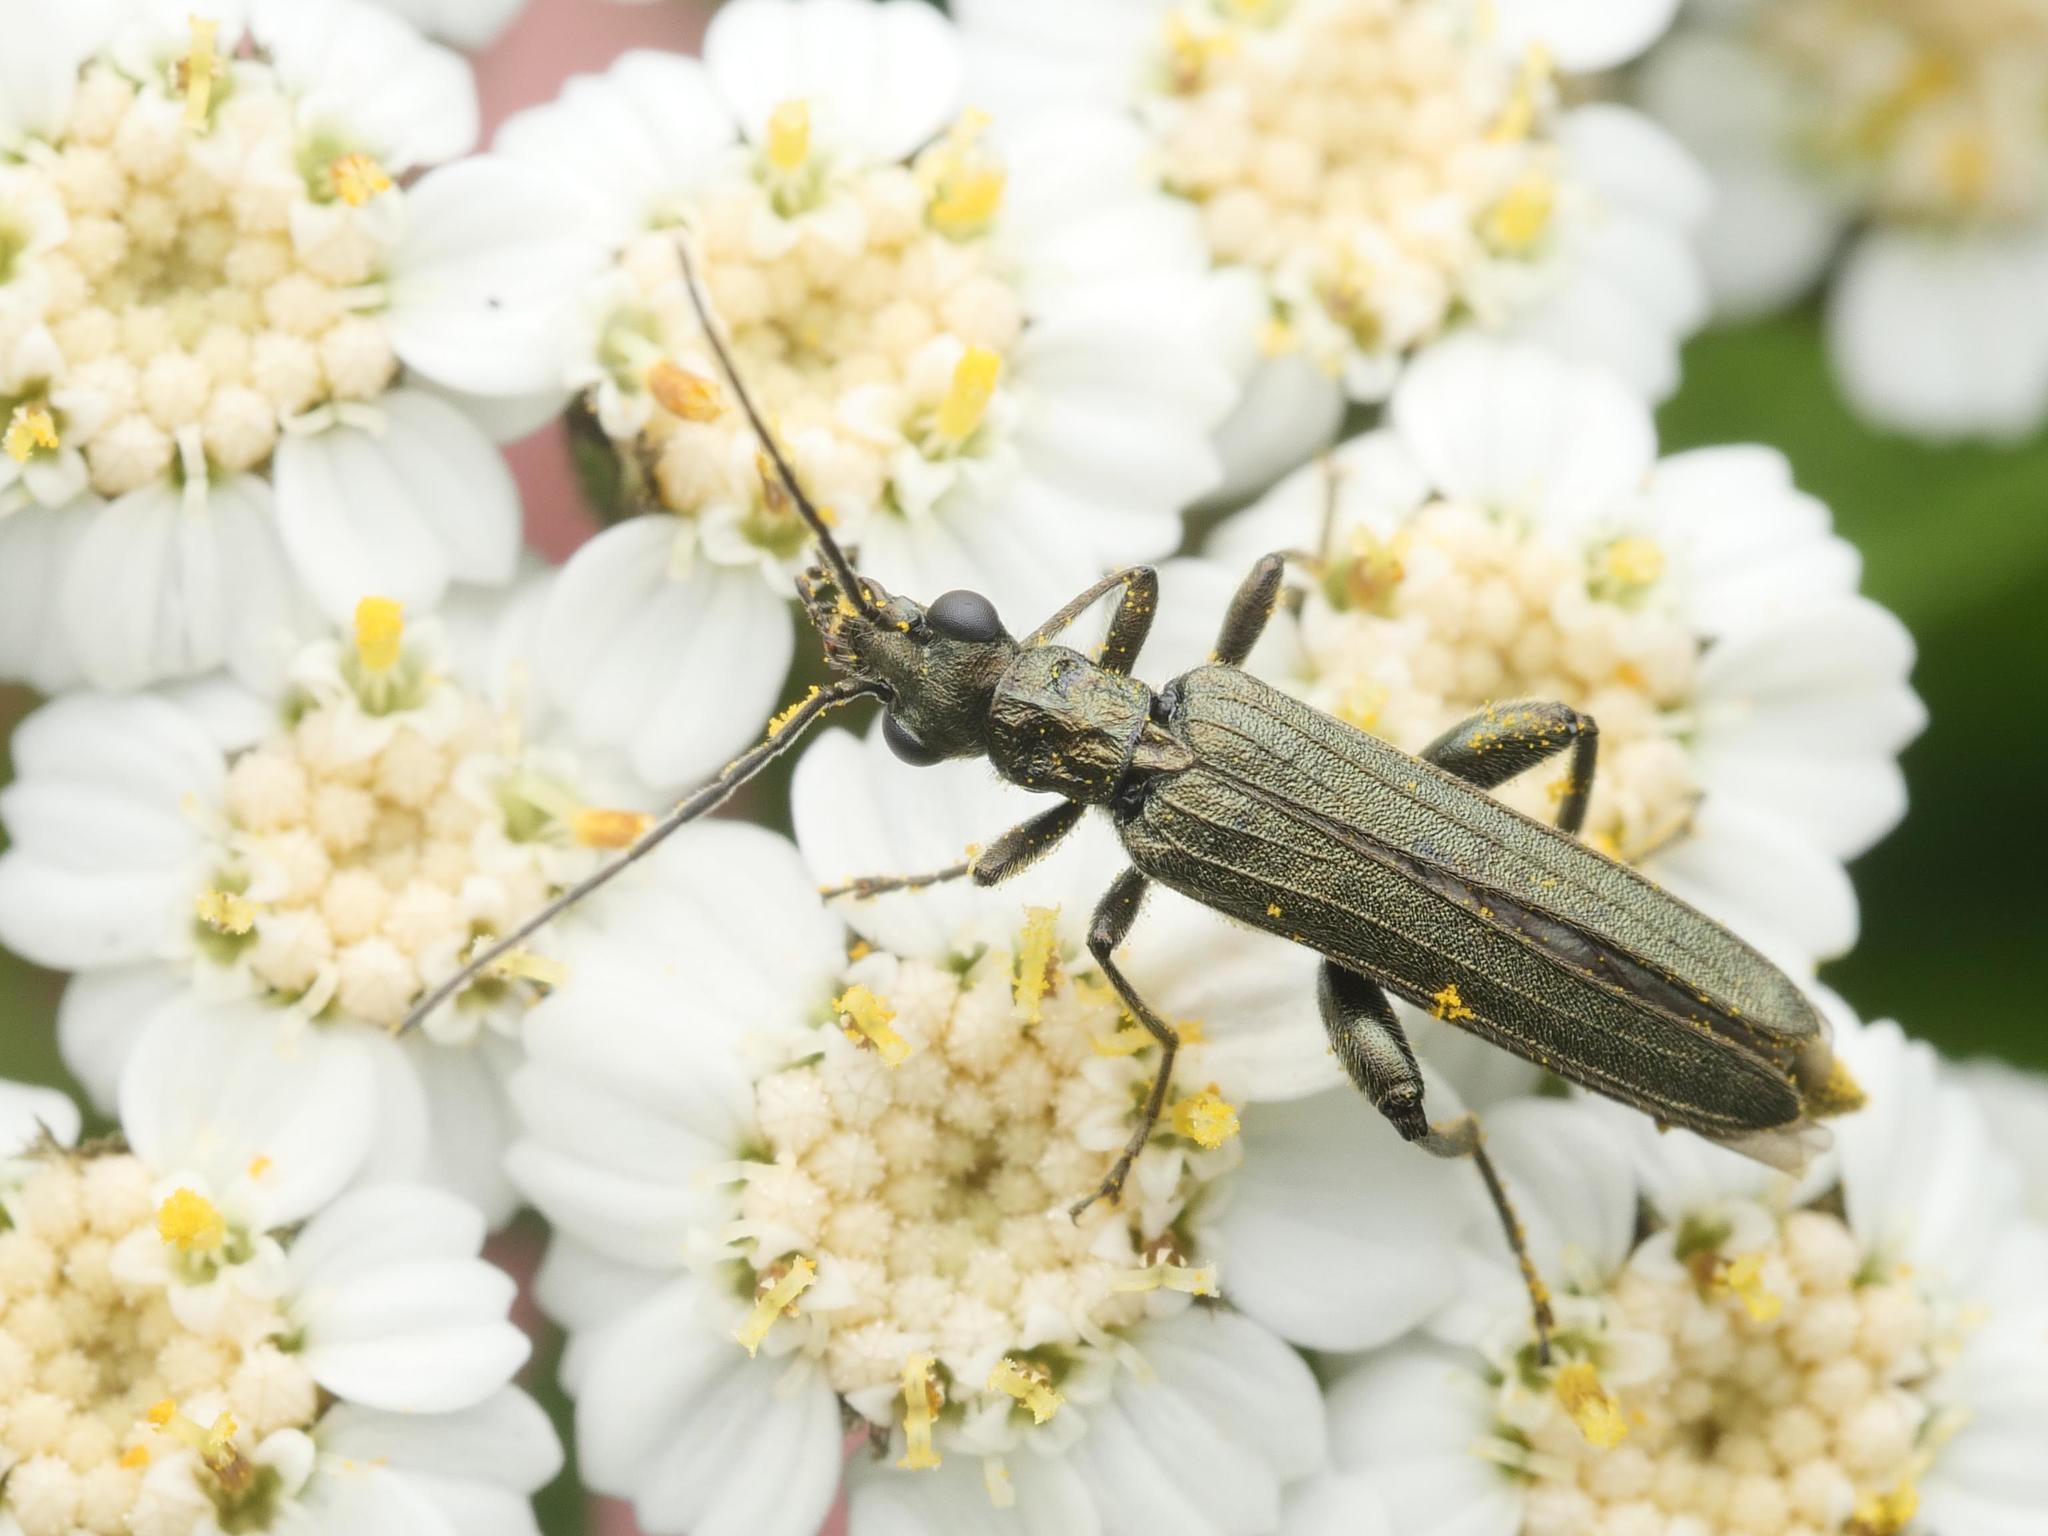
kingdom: Animalia
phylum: Arthropoda
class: Insecta
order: Coleoptera
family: Oedemeridae
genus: Oedemera
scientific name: Oedemera virescens
